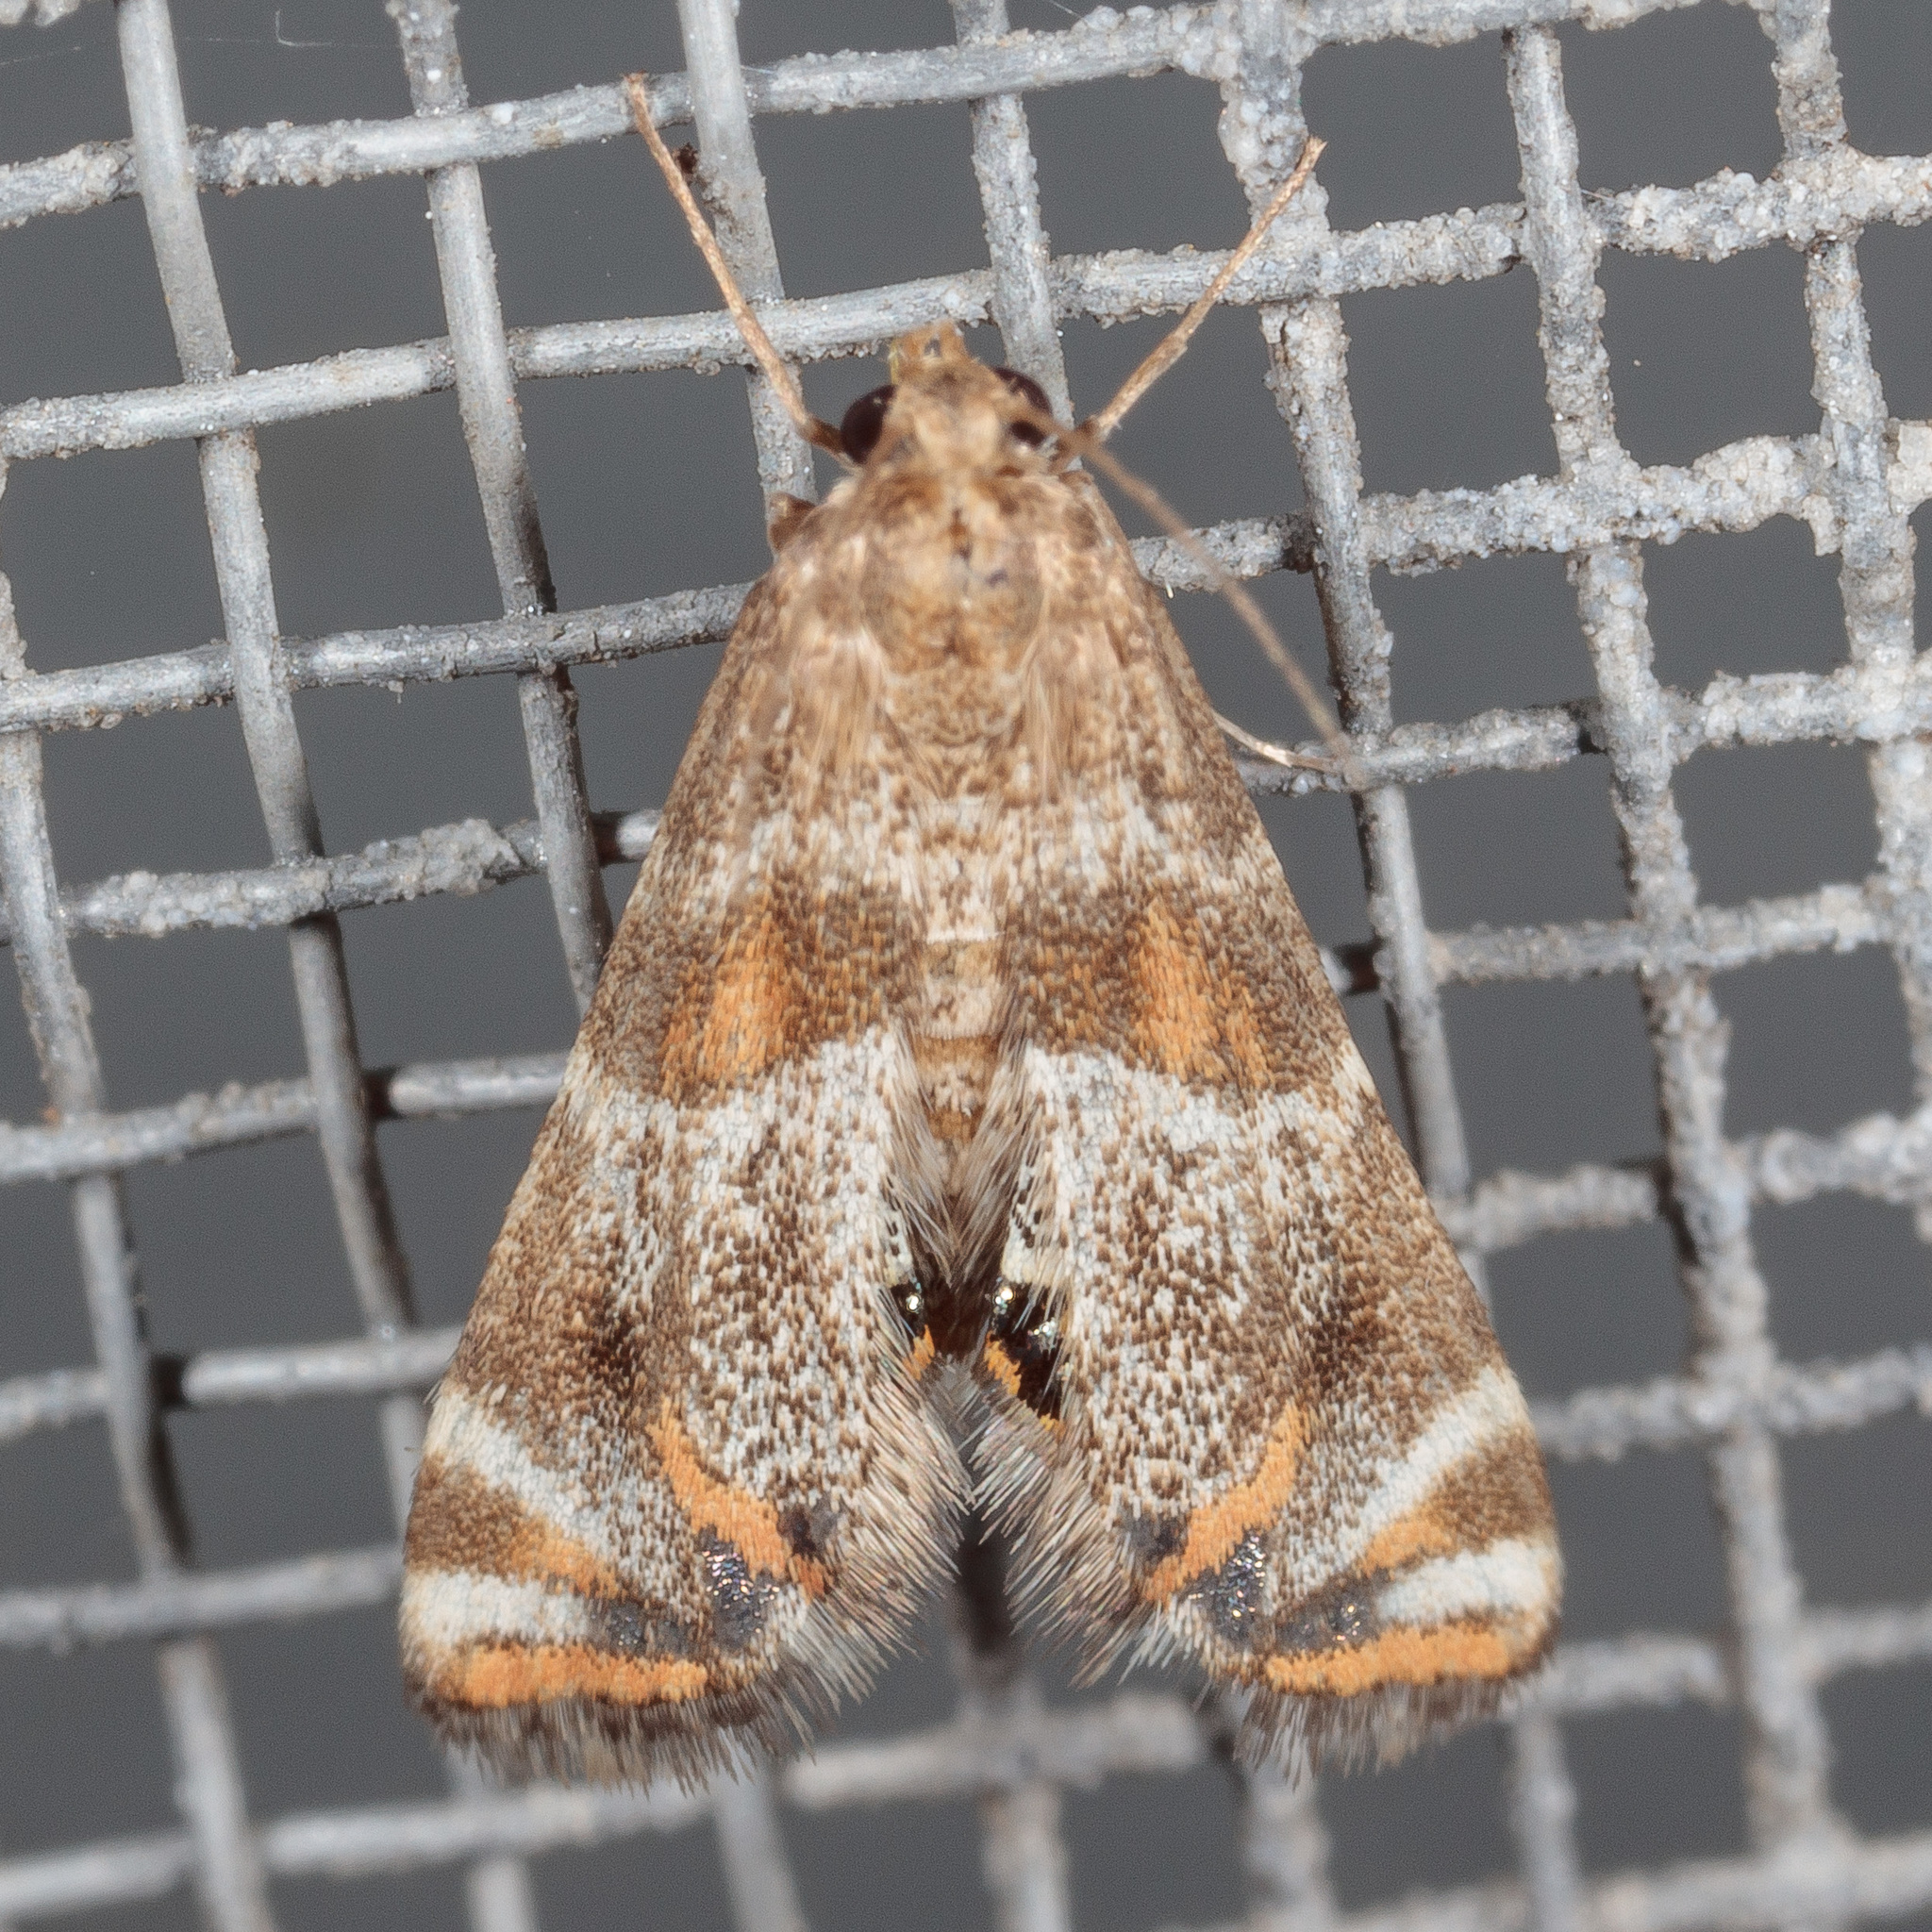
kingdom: Animalia
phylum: Arthropoda
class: Insecta
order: Lepidoptera
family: Crambidae
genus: Petrophila
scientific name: Petrophila jaliscalis
